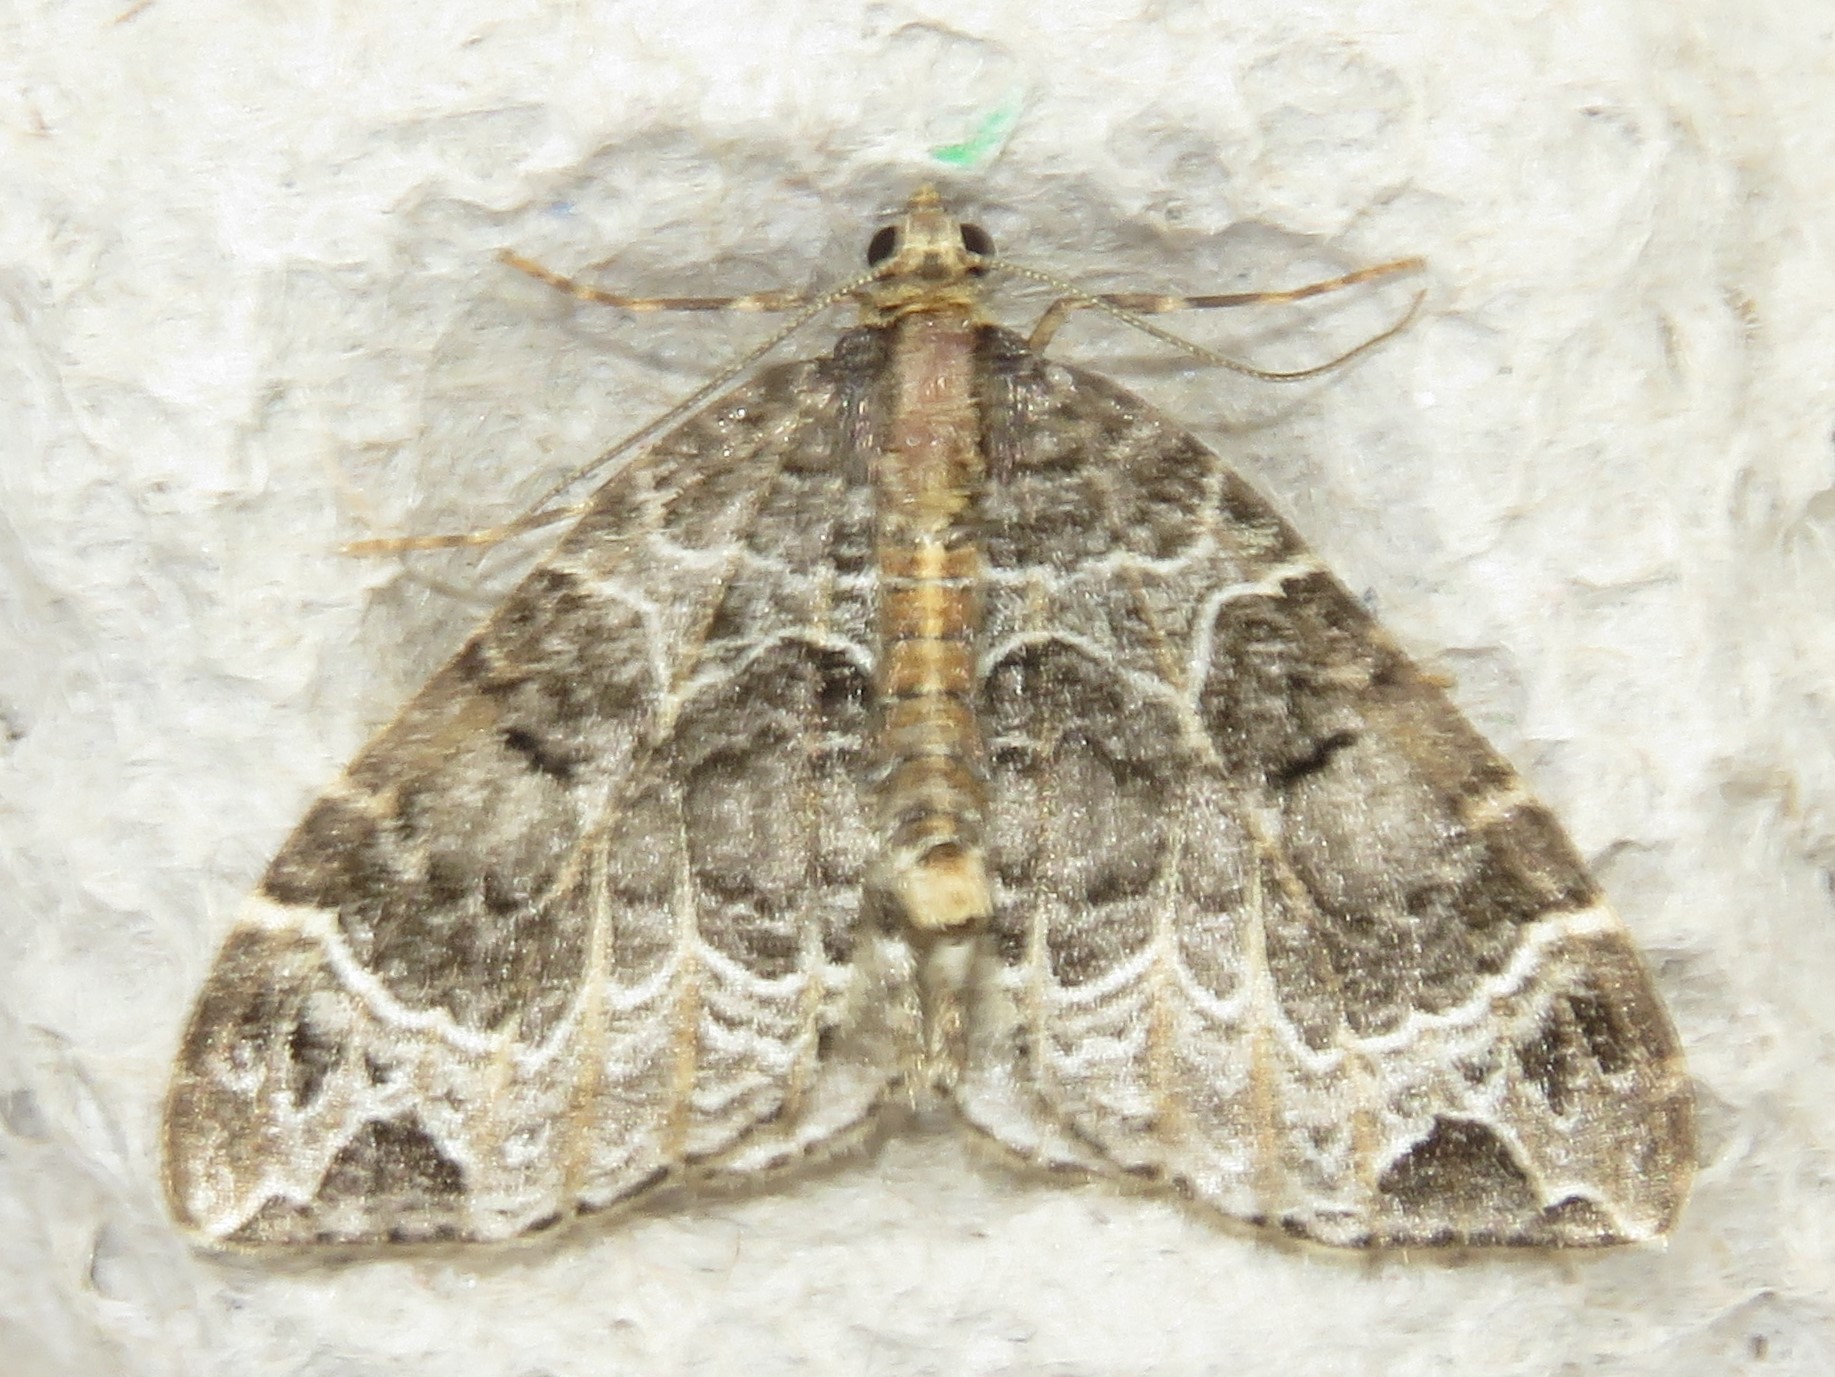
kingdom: Animalia
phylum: Arthropoda
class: Insecta
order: Lepidoptera
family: Geometridae
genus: Ecliptopera
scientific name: Ecliptopera silaceata
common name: Small phoenix
